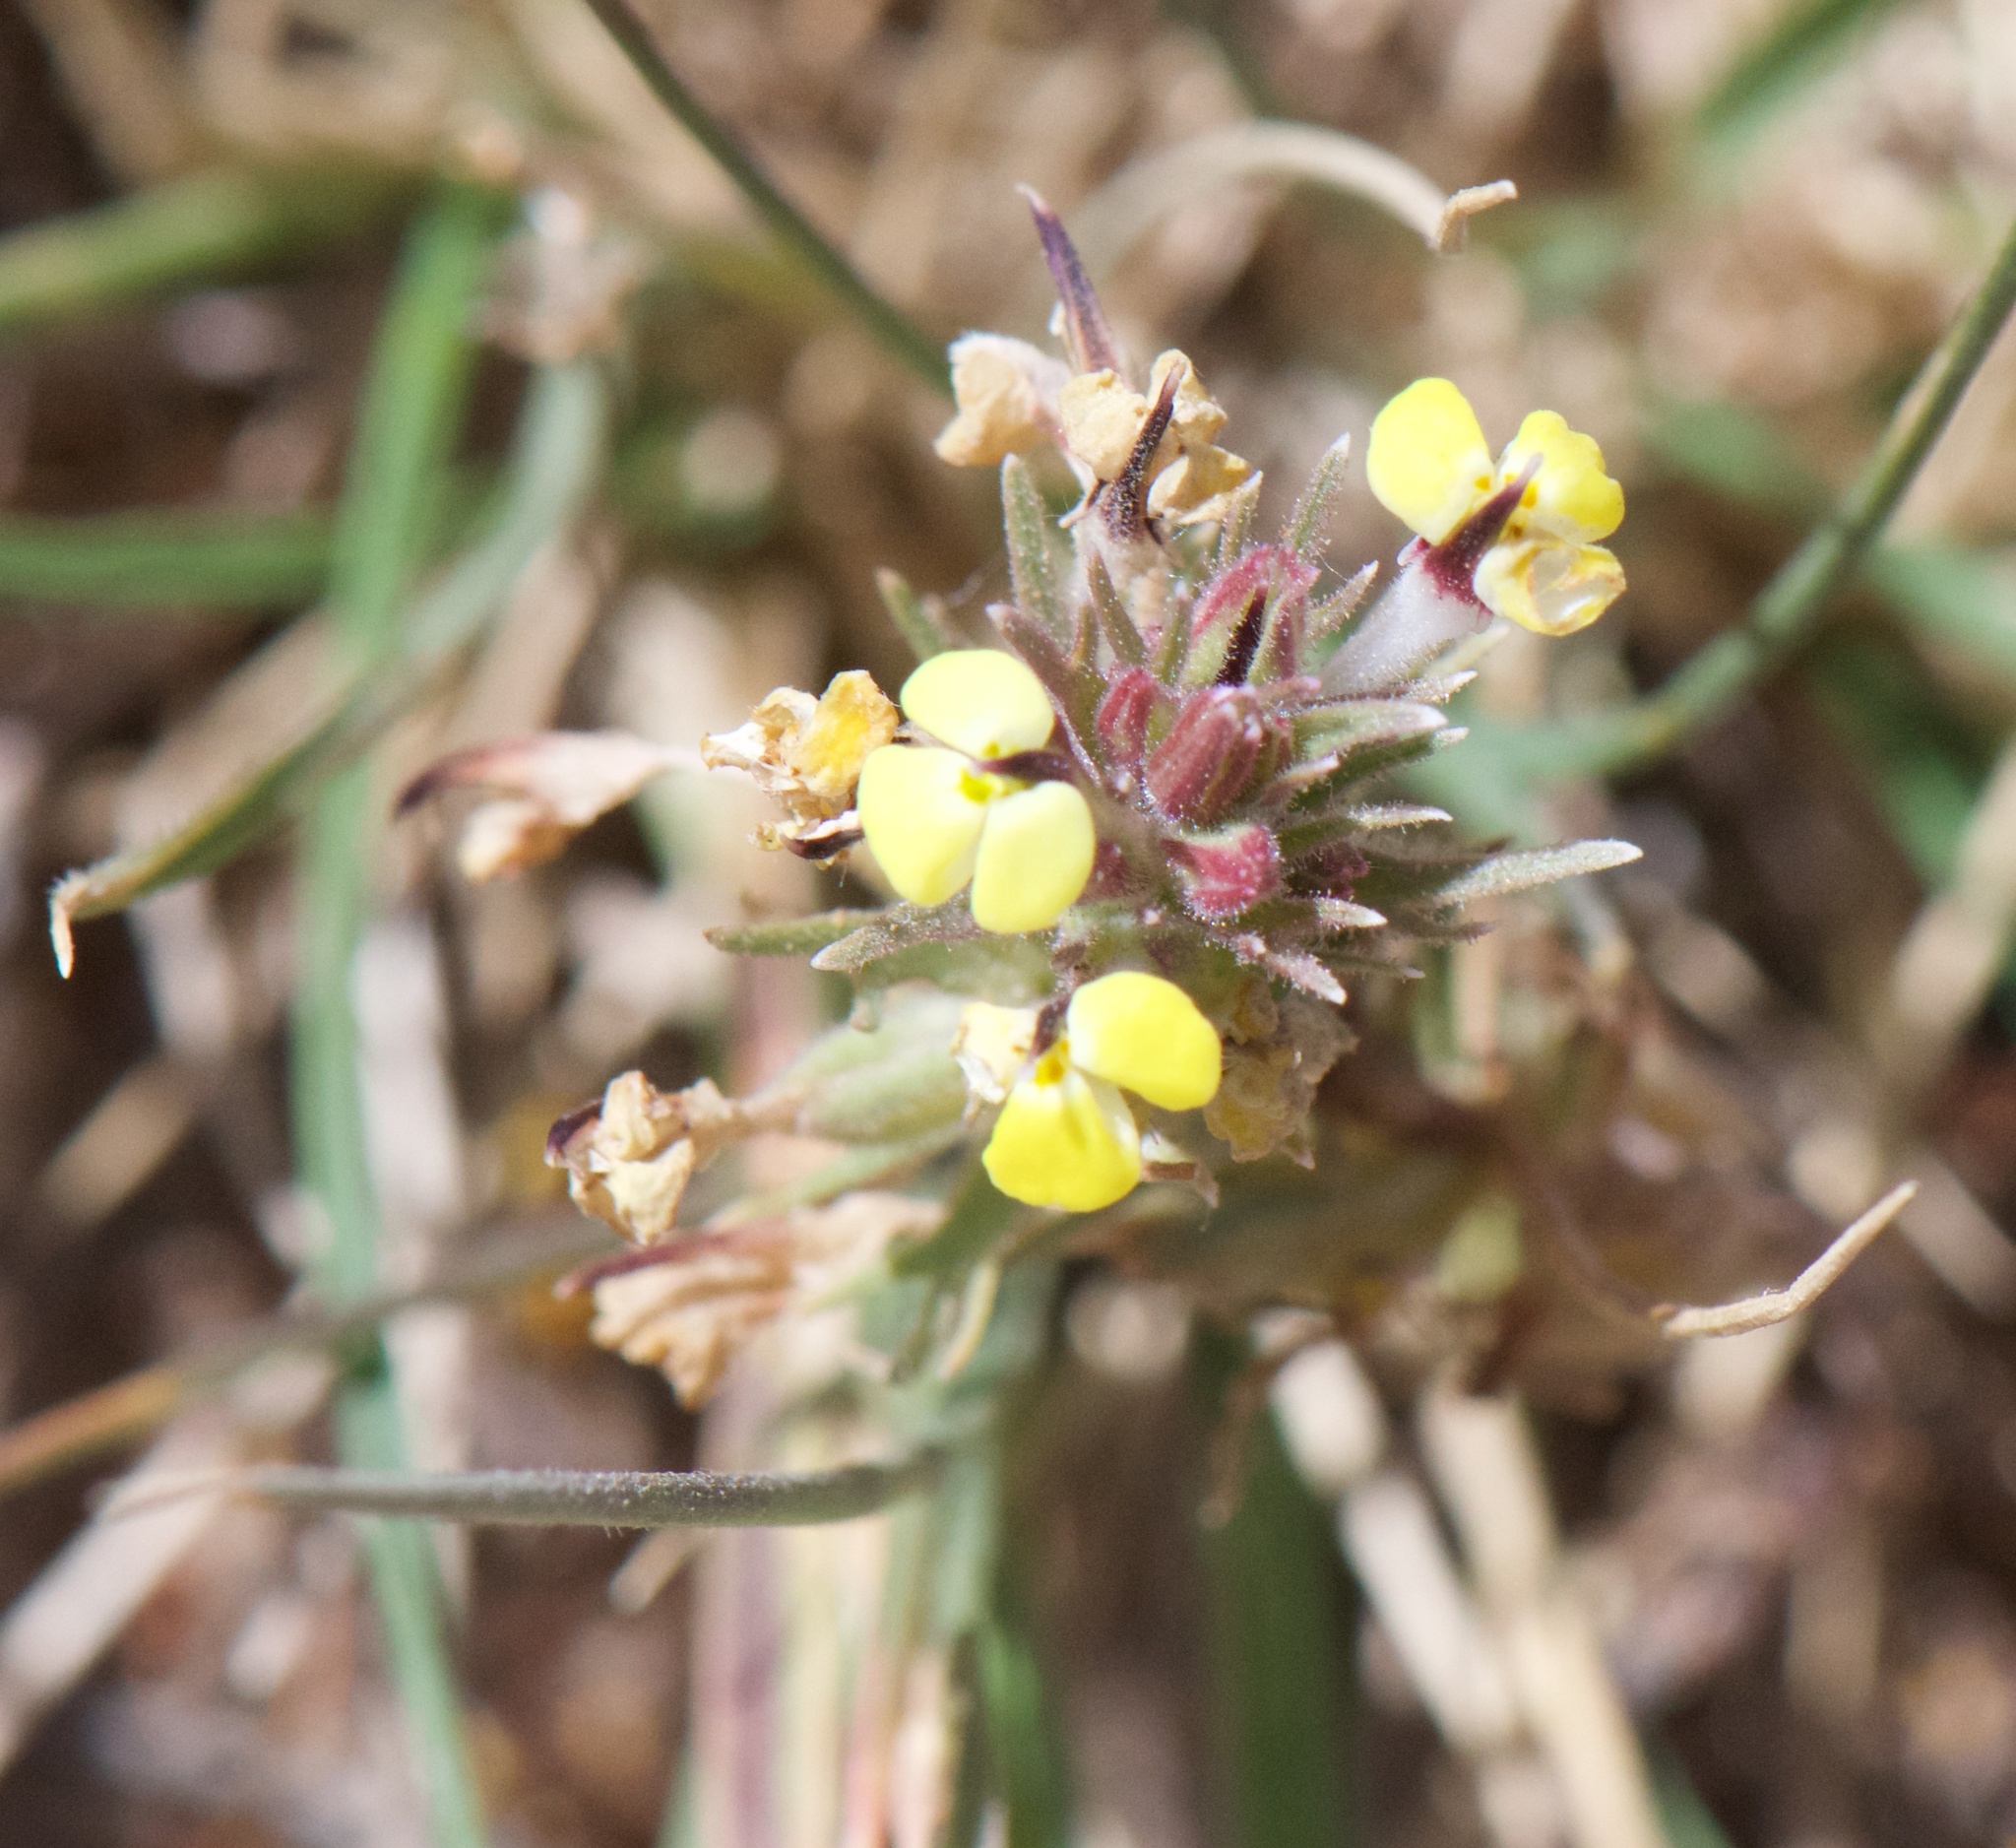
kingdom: Plantae
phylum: Tracheophyta
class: Magnoliopsida
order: Lamiales
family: Orobanchaceae
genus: Triphysaria
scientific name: Triphysaria eriantha
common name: Johnny-tuck
